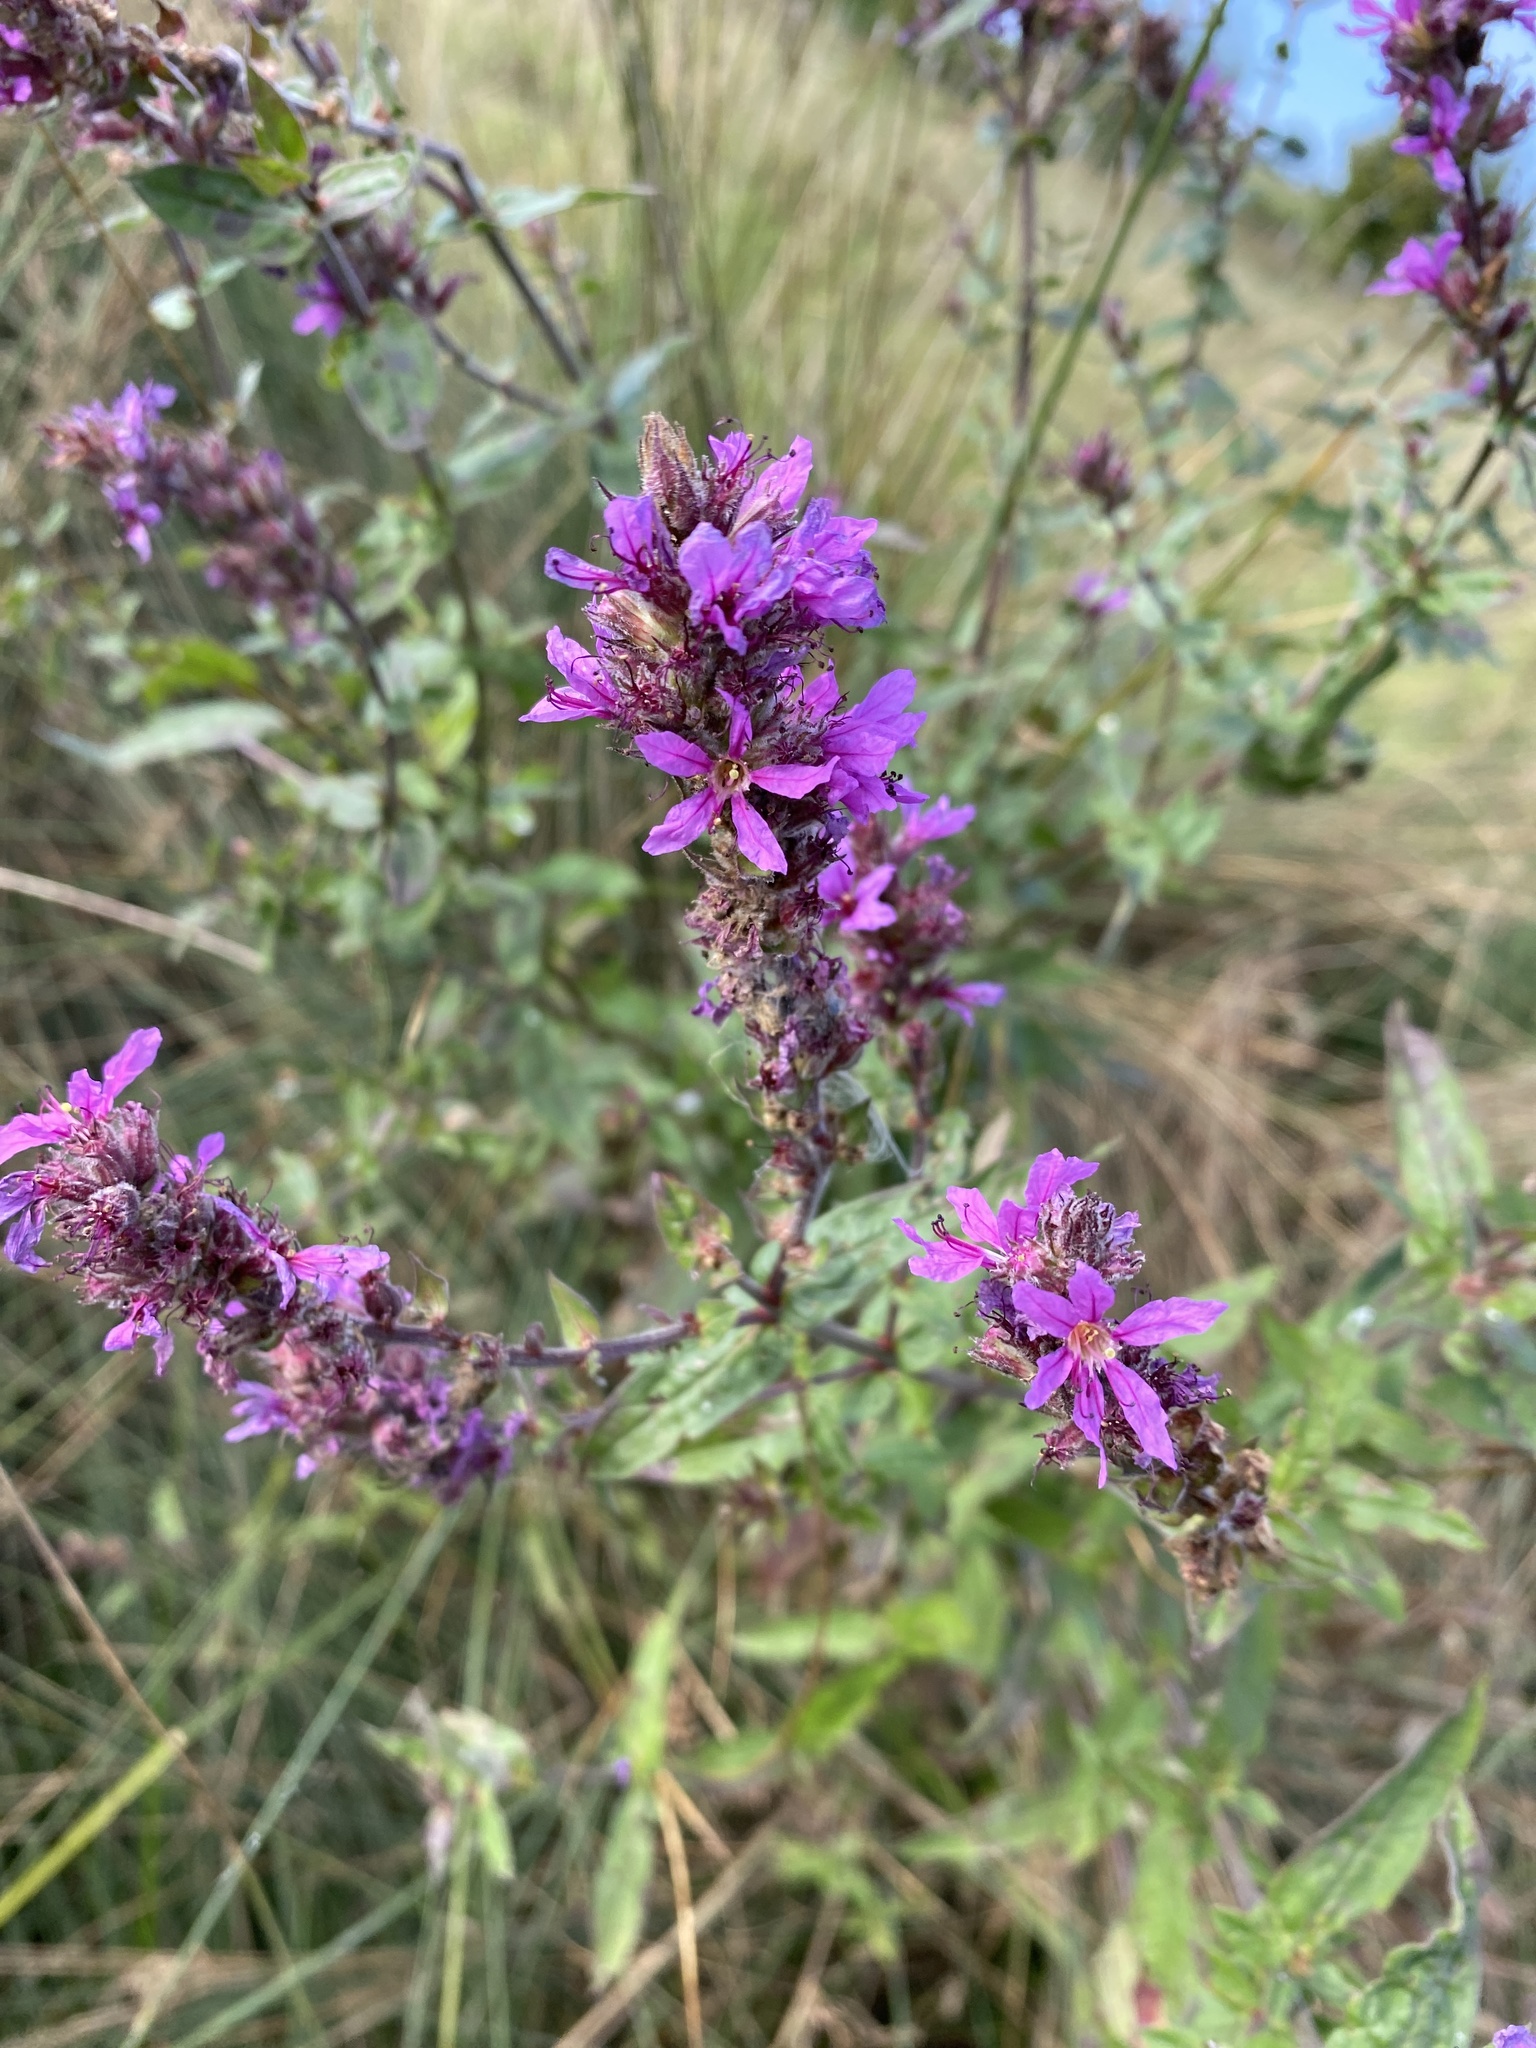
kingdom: Plantae
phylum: Tracheophyta
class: Magnoliopsida
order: Myrtales
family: Lythraceae
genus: Lythrum
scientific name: Lythrum salicaria
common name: Purple loosestrife
